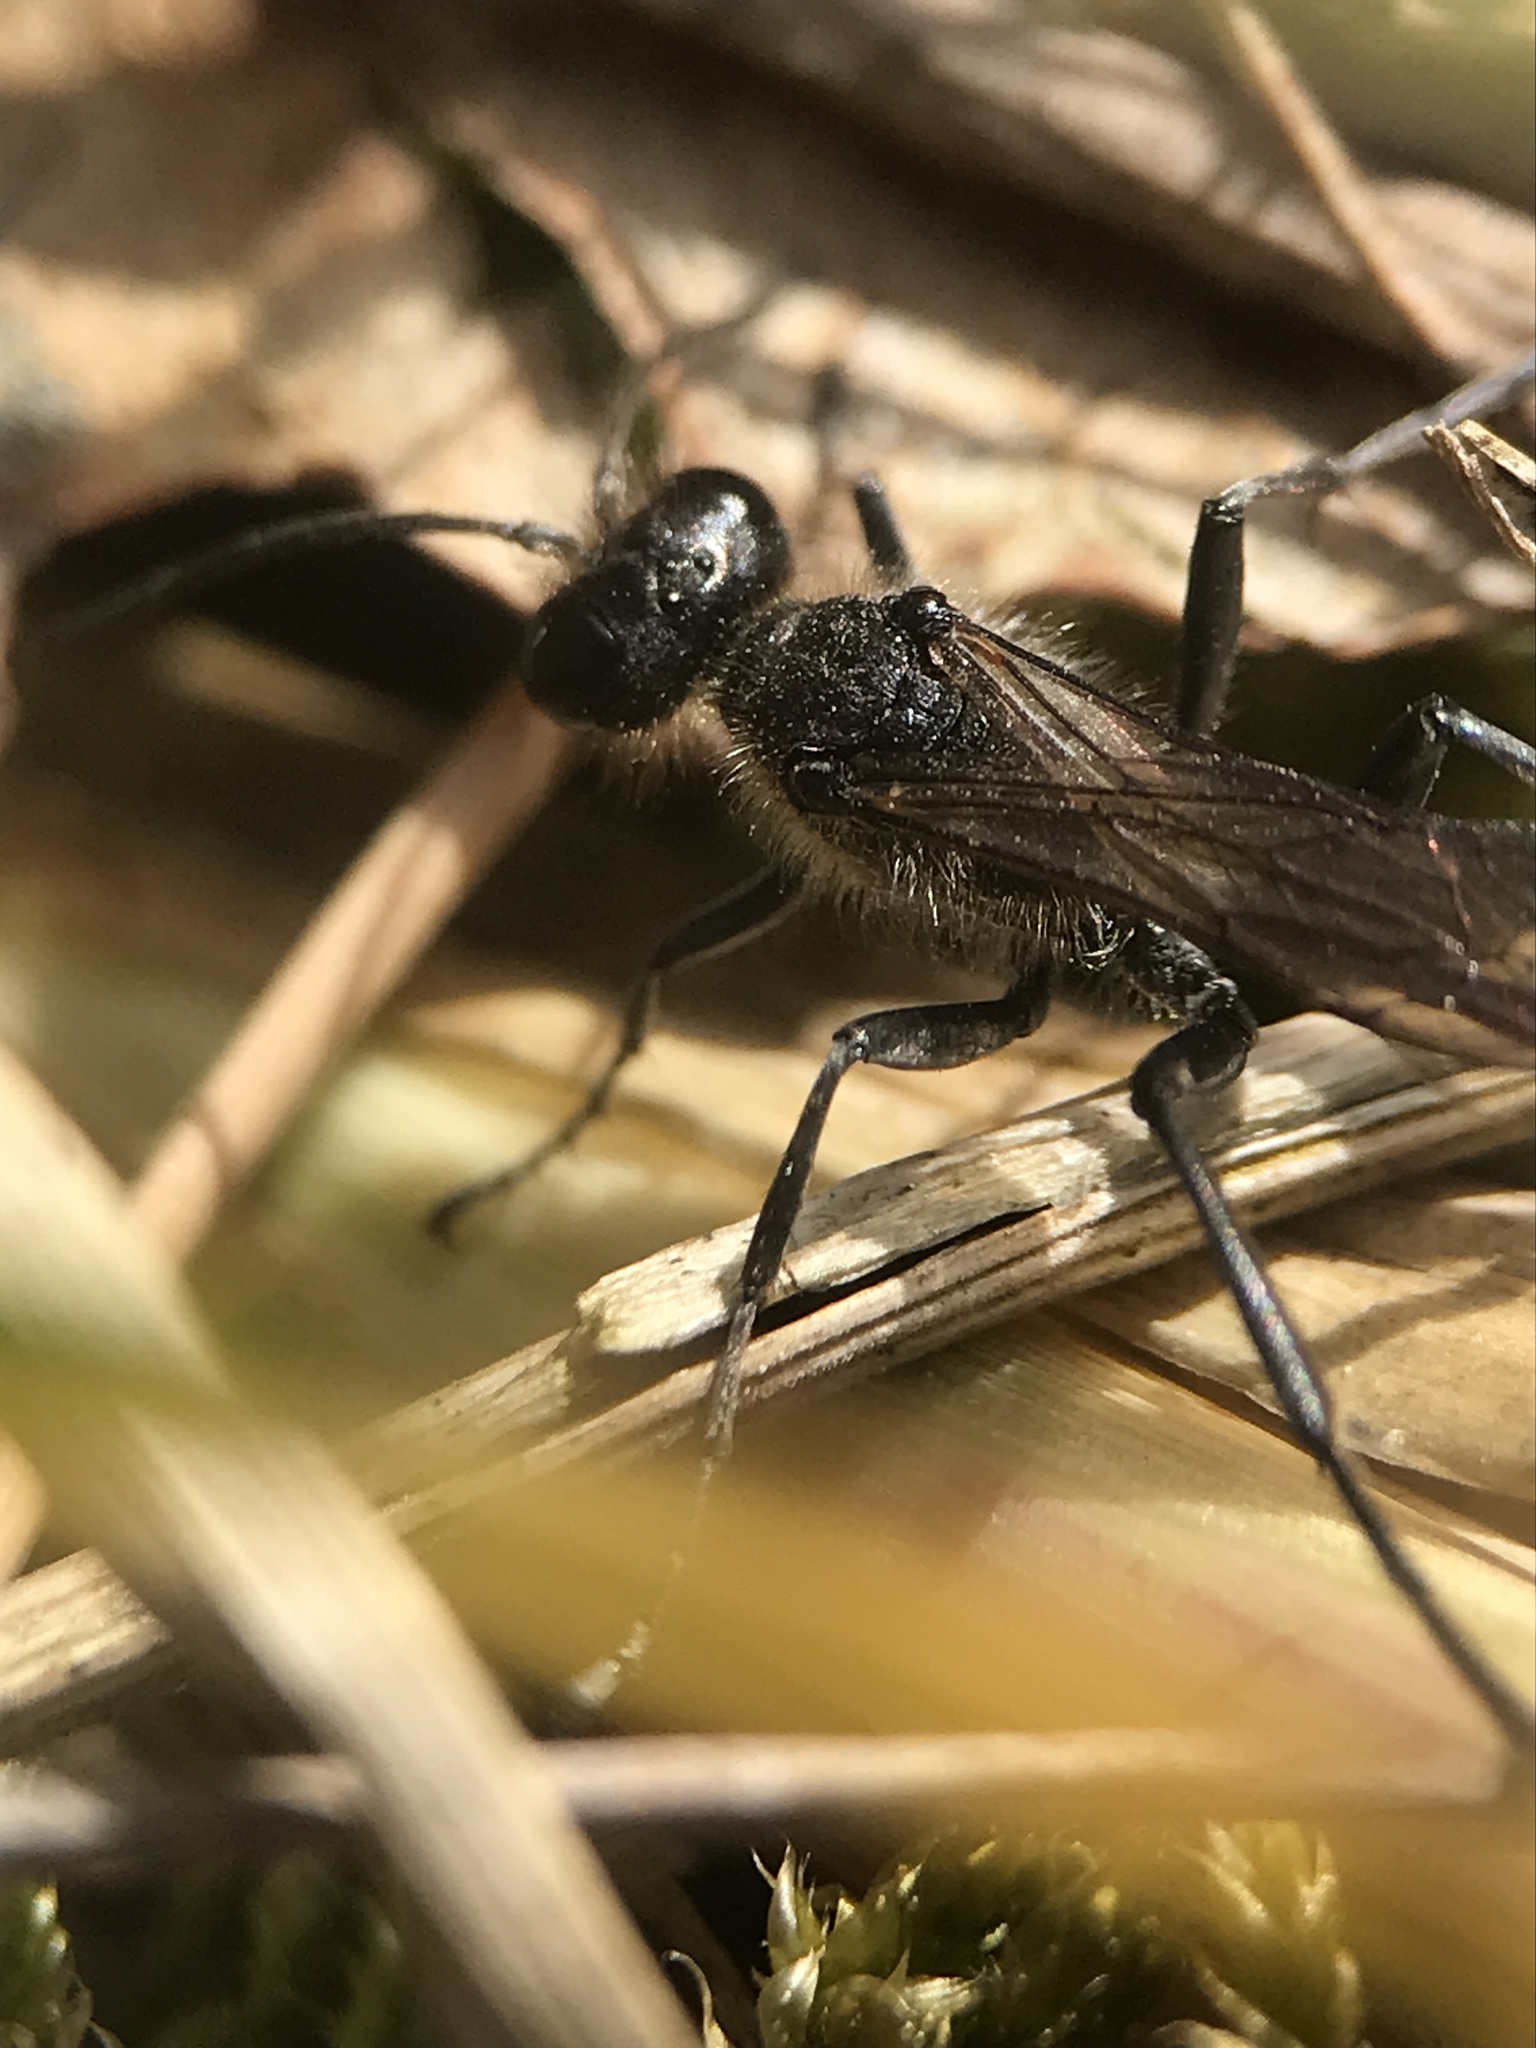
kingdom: Animalia
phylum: Arthropoda
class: Insecta
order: Hymenoptera
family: Sphecidae
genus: Ammophila
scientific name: Ammophila sabulosa
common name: Red banded sand wasp
